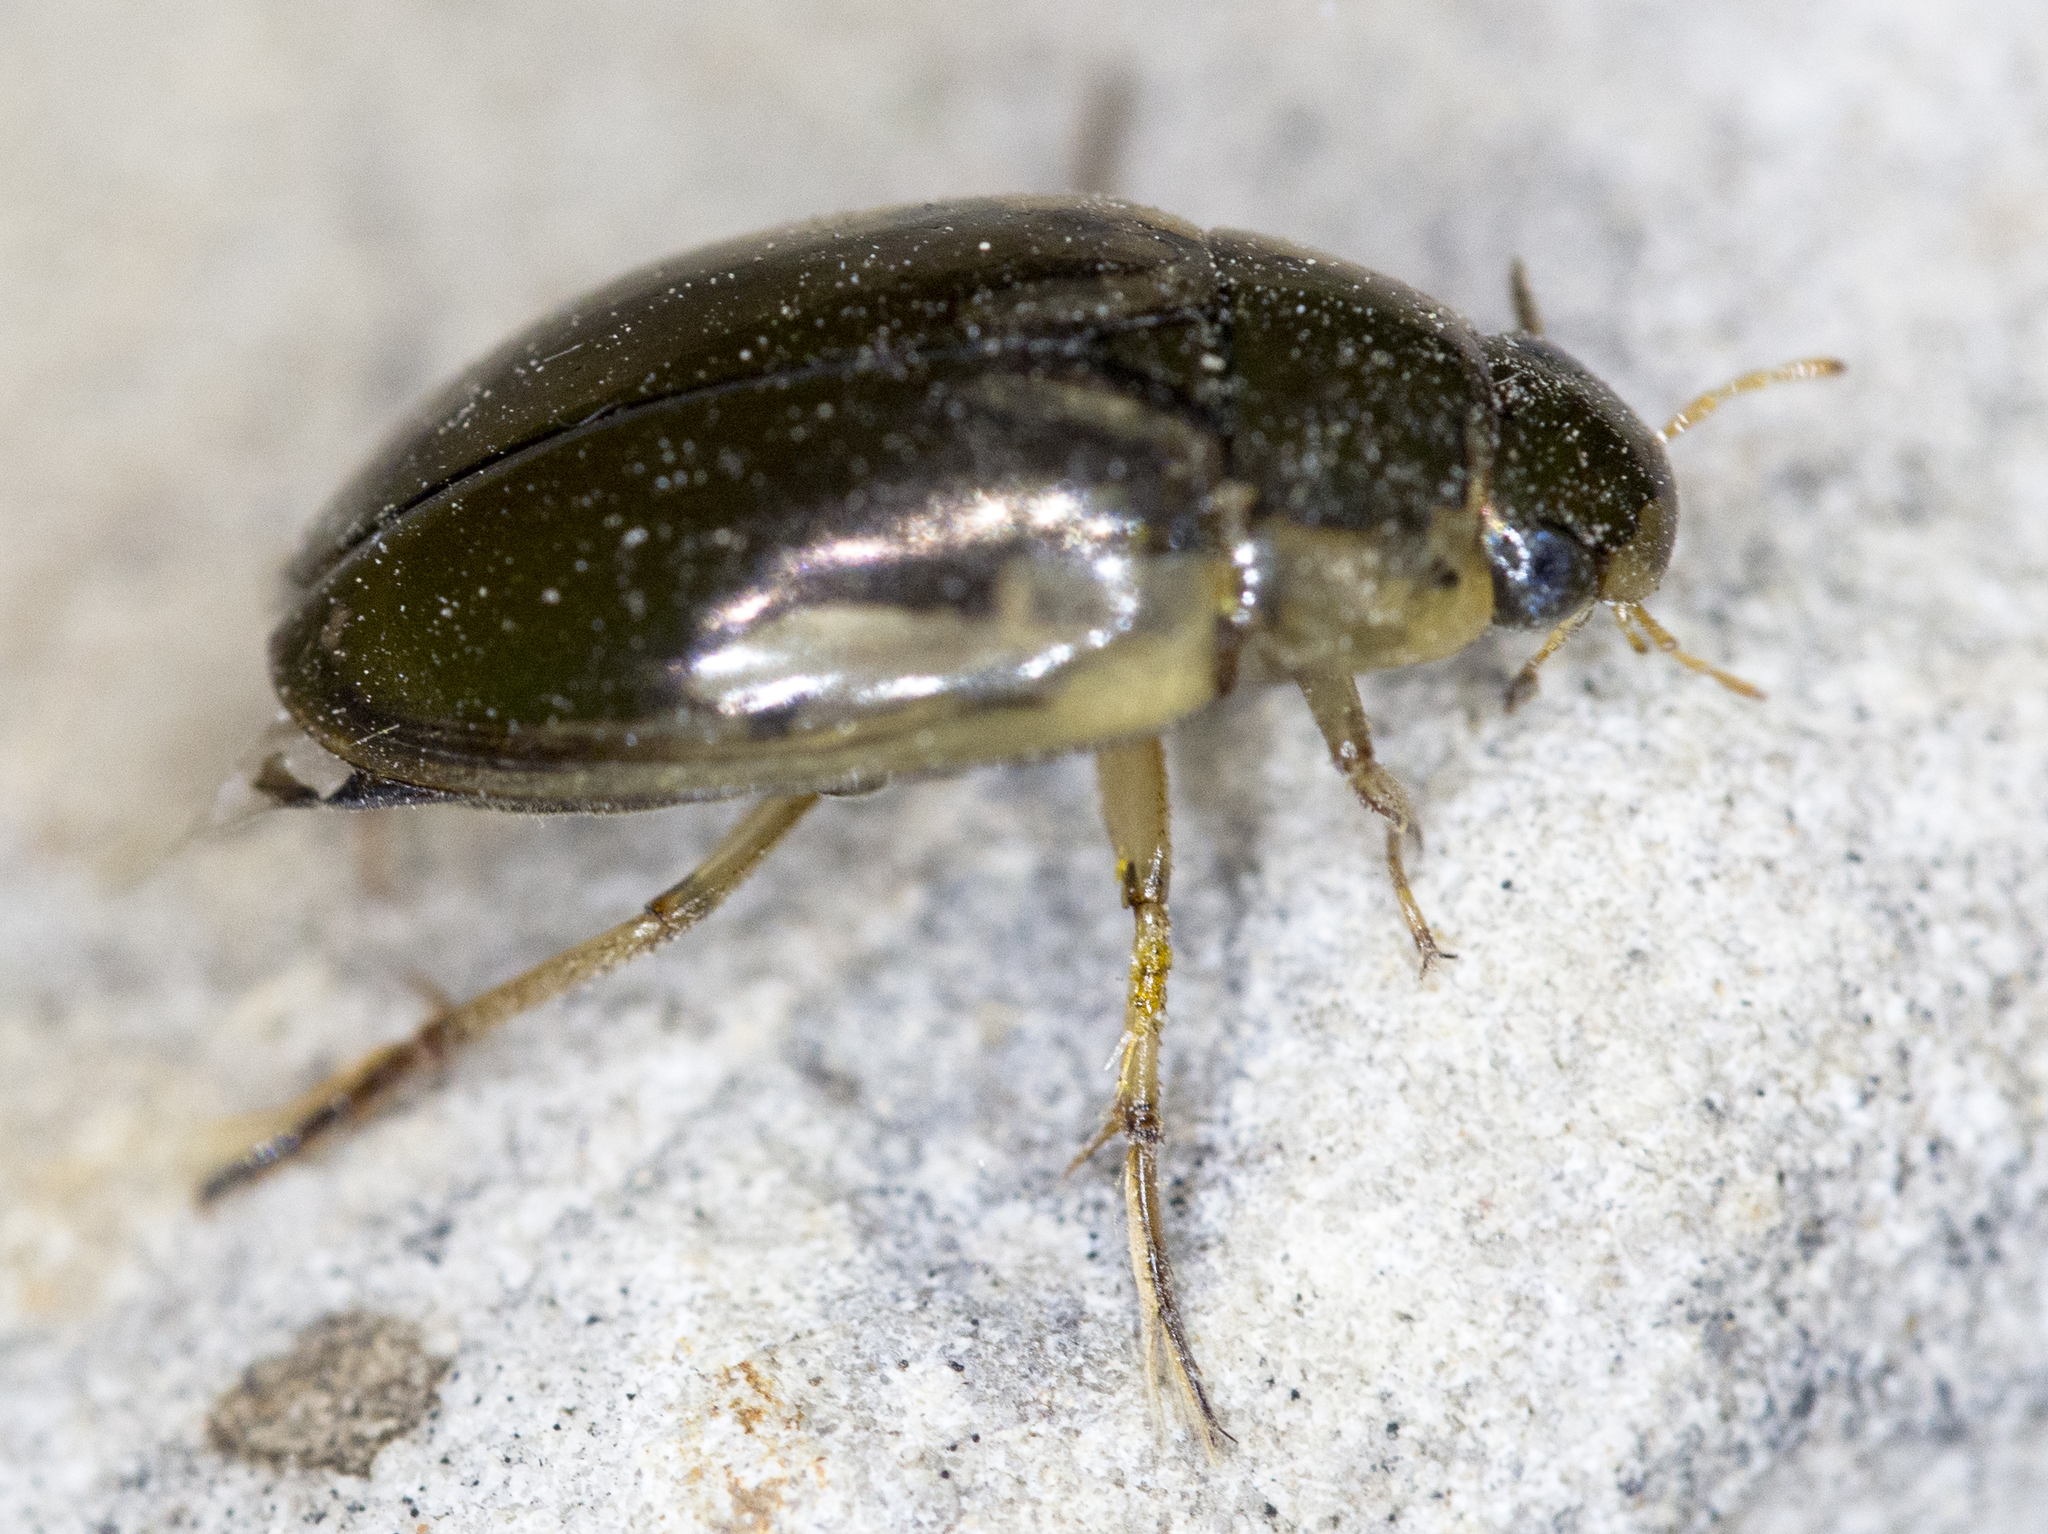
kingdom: Animalia
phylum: Arthropoda
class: Insecta
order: Coleoptera
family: Hydrophilidae
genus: Tropisternus
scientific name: Tropisternus lateralis
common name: Lateral-banded water scavenger beetle
